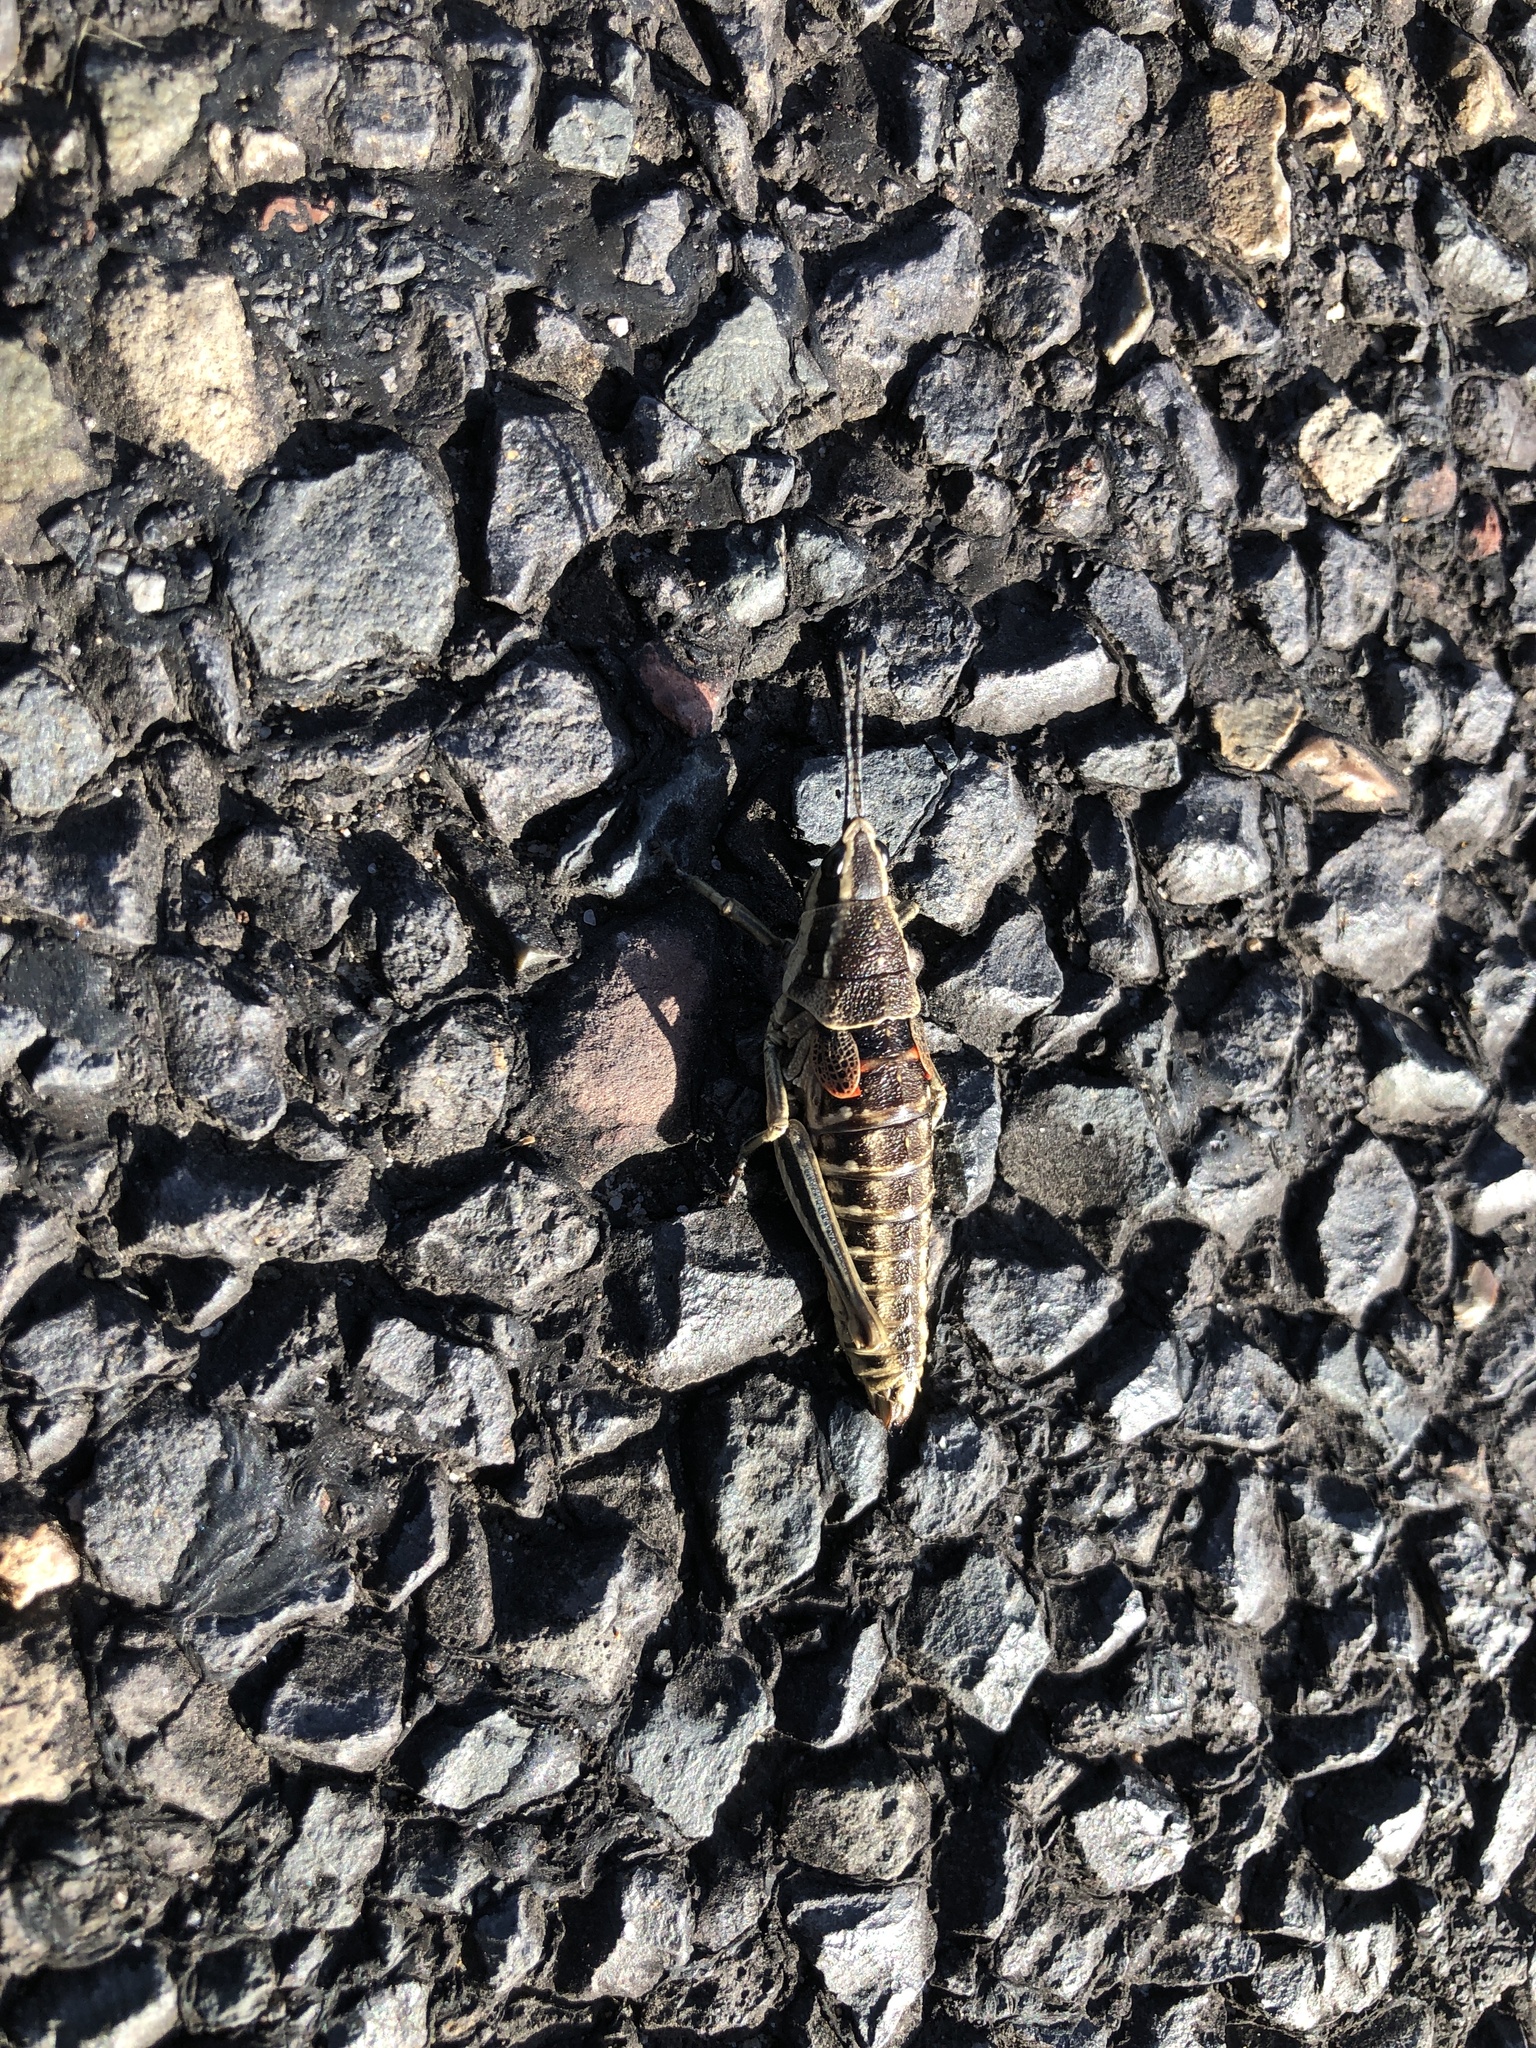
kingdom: Animalia
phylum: Arthropoda
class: Insecta
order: Orthoptera
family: Pyrgomorphidae
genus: Monistria
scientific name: Monistria concinna
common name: Southern pyrgomorph
